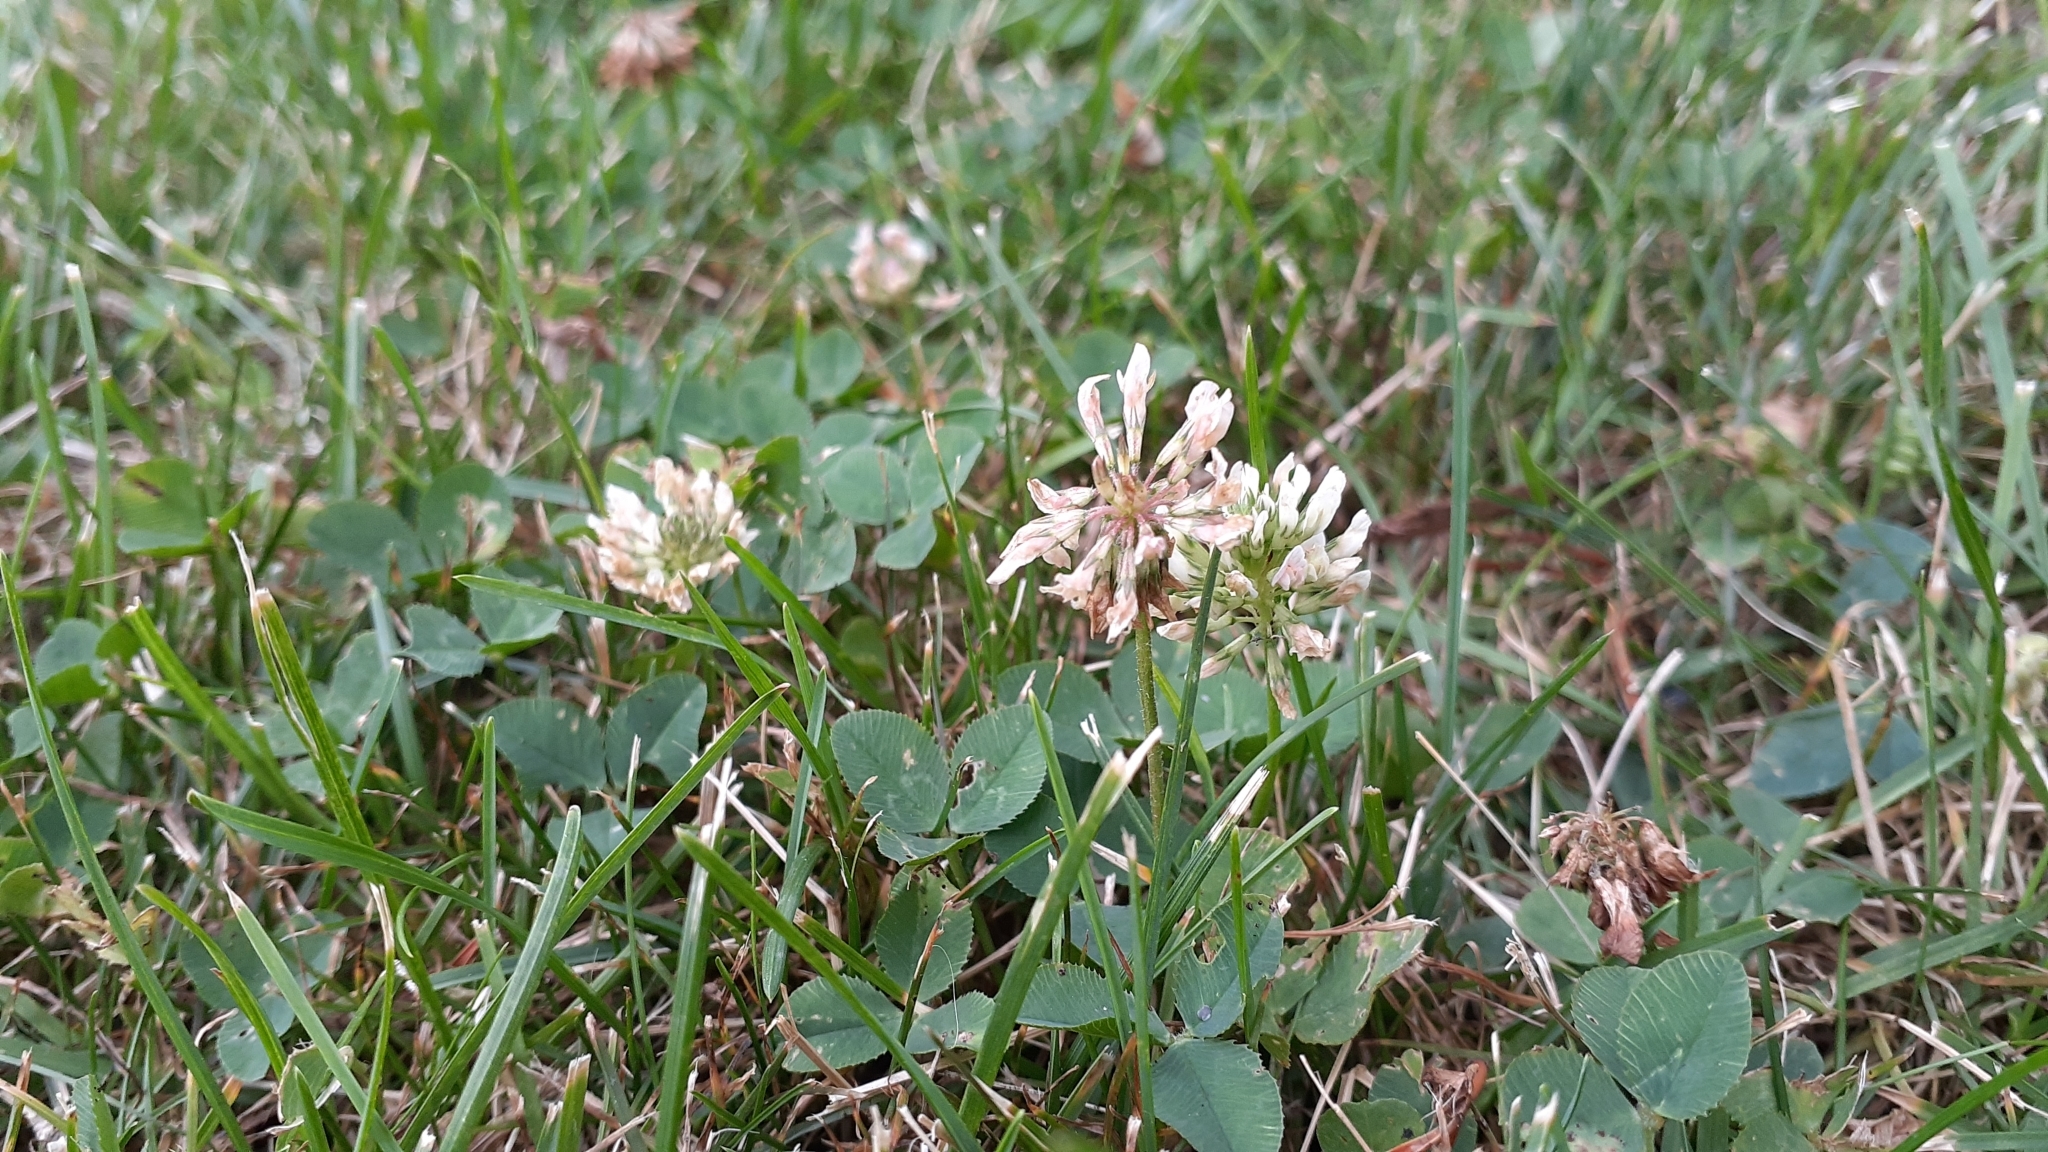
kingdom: Plantae
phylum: Tracheophyta
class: Magnoliopsida
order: Fabales
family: Fabaceae
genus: Trifolium
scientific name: Trifolium repens
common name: White clover
